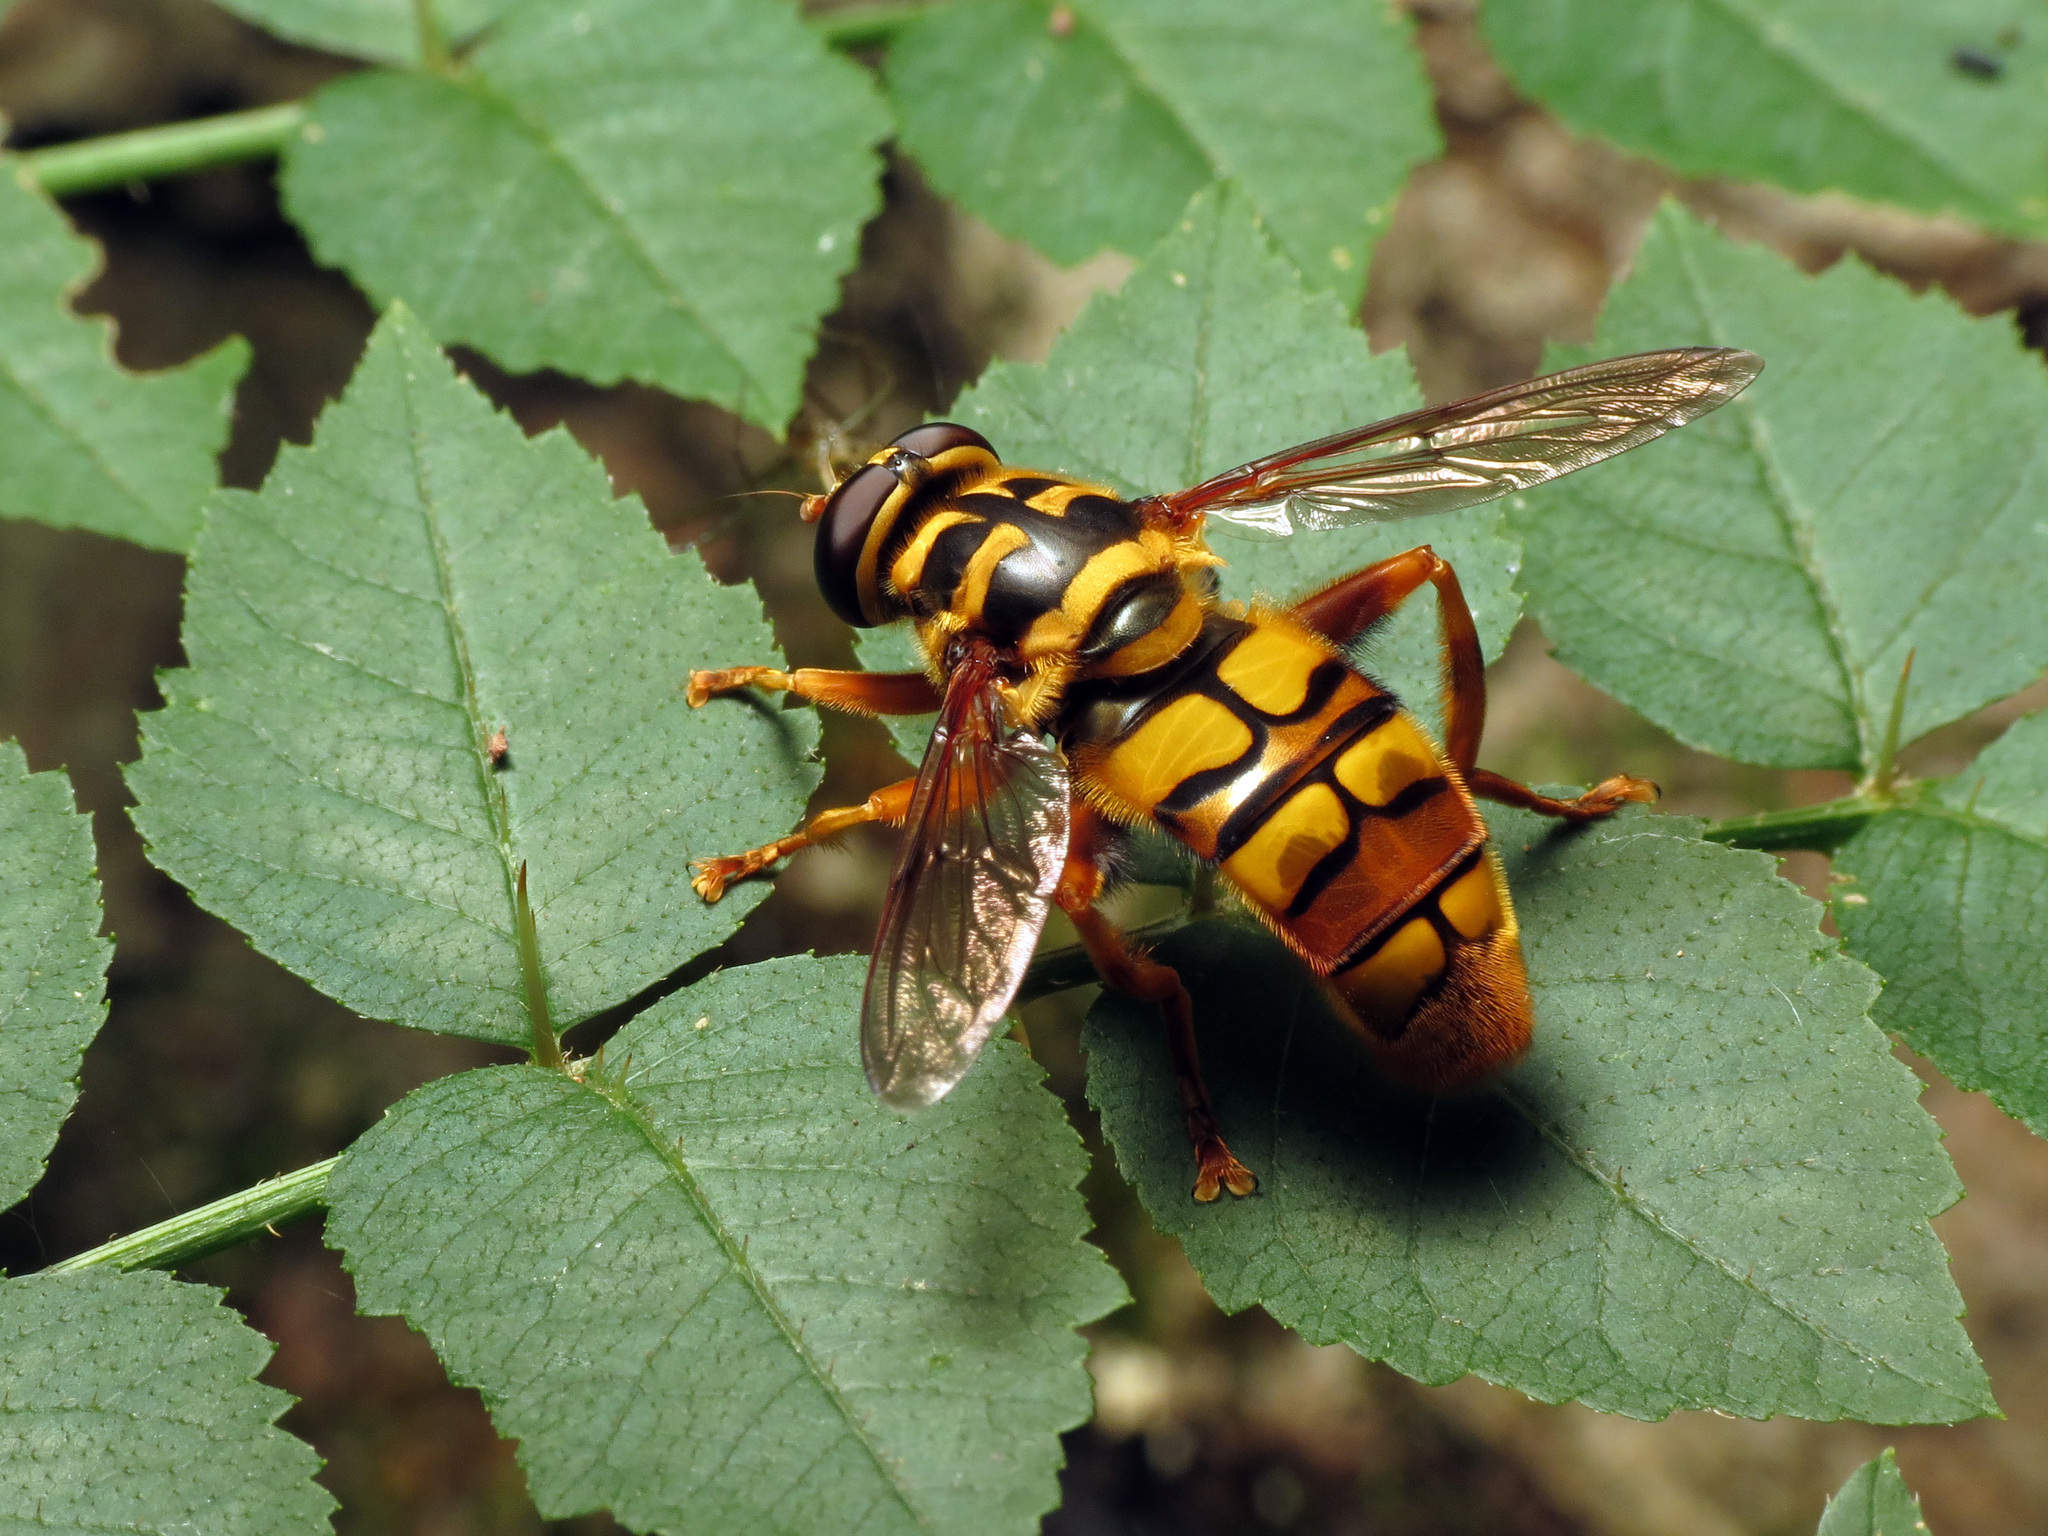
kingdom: Animalia
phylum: Arthropoda
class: Insecta
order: Diptera
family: Syrphidae
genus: Milesia
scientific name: Milesia virginiensis
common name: Virginia giant
